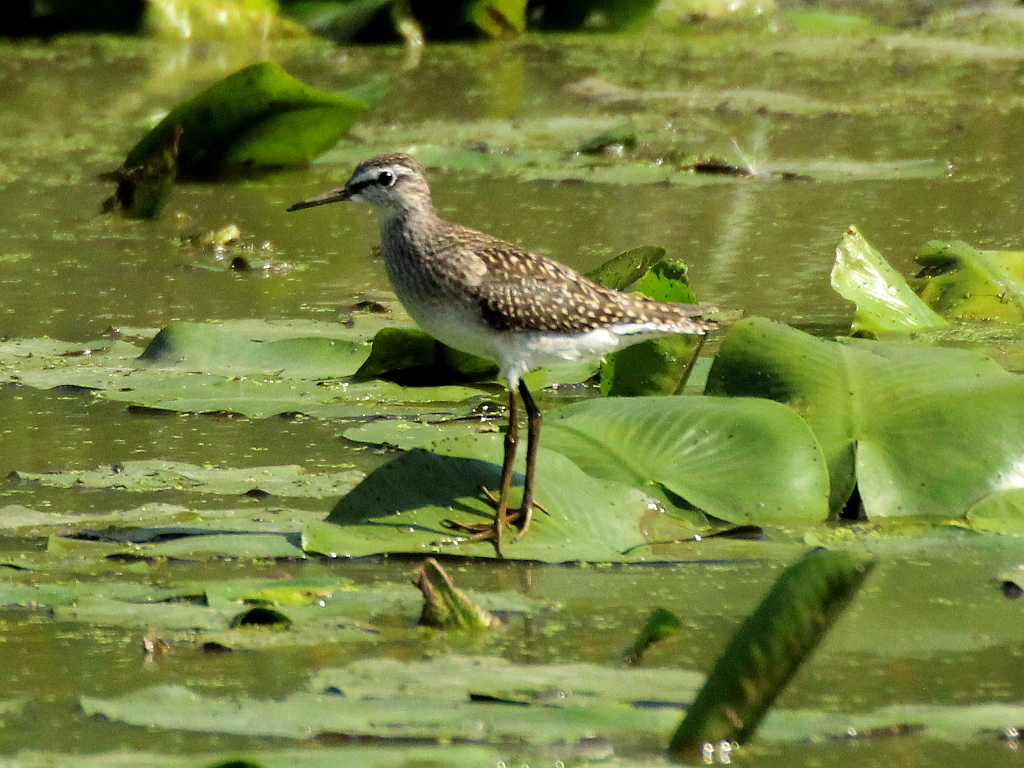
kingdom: Animalia
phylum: Chordata
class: Aves
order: Charadriiformes
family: Scolopacidae
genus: Tringa
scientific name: Tringa glareola
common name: Wood sandpiper
